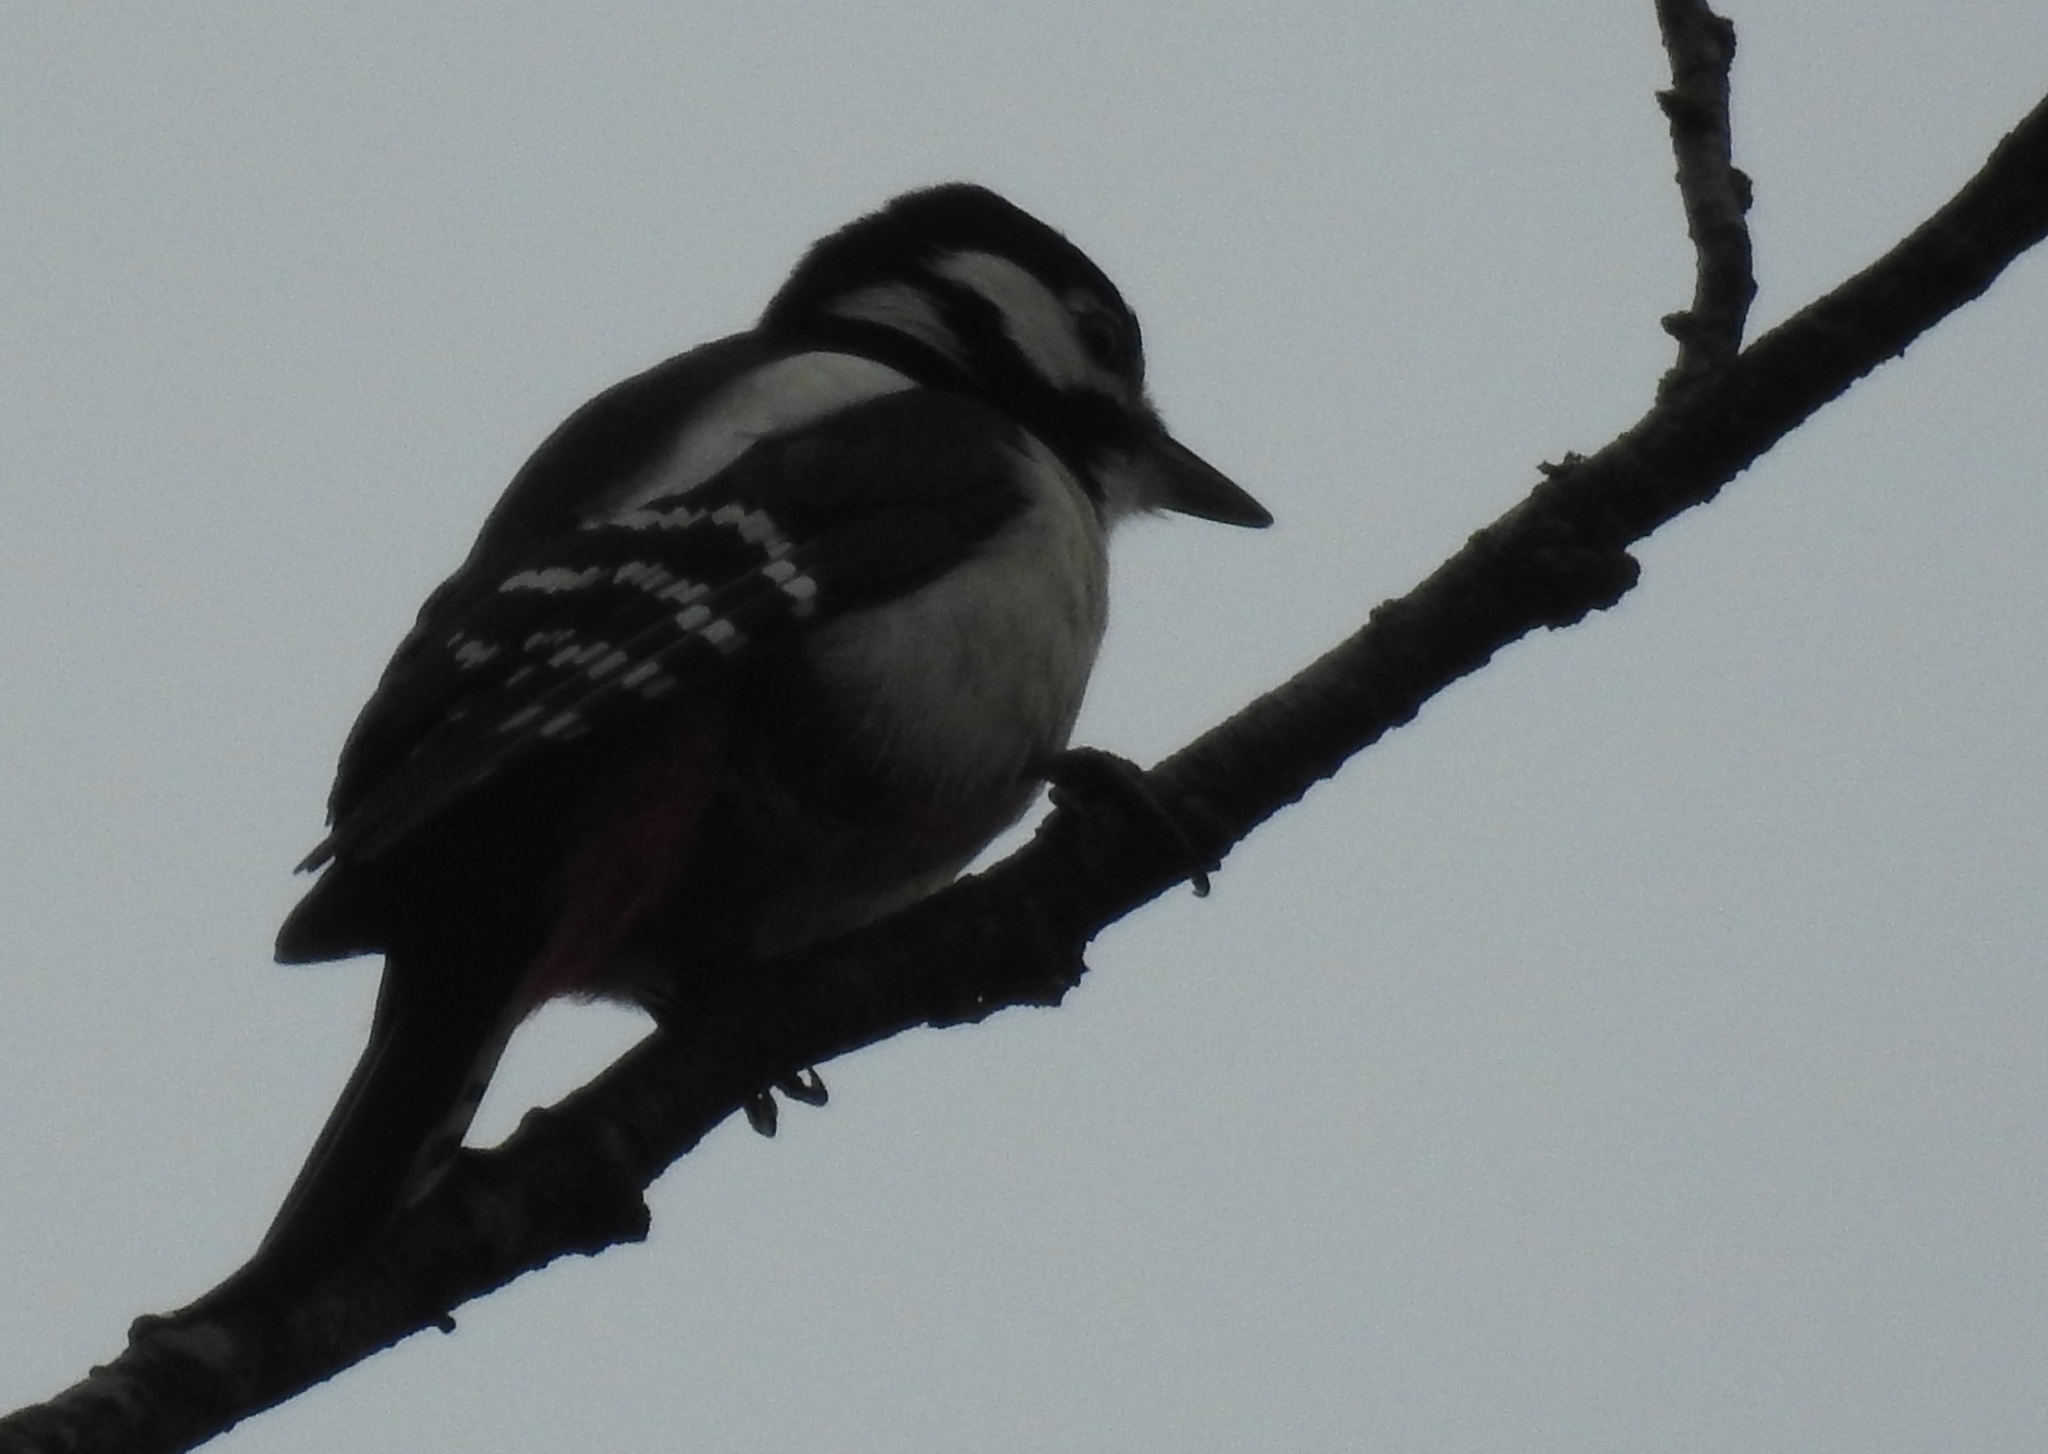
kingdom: Animalia
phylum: Chordata
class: Aves
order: Piciformes
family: Picidae
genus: Dendrocopos
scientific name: Dendrocopos major
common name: Great spotted woodpecker
